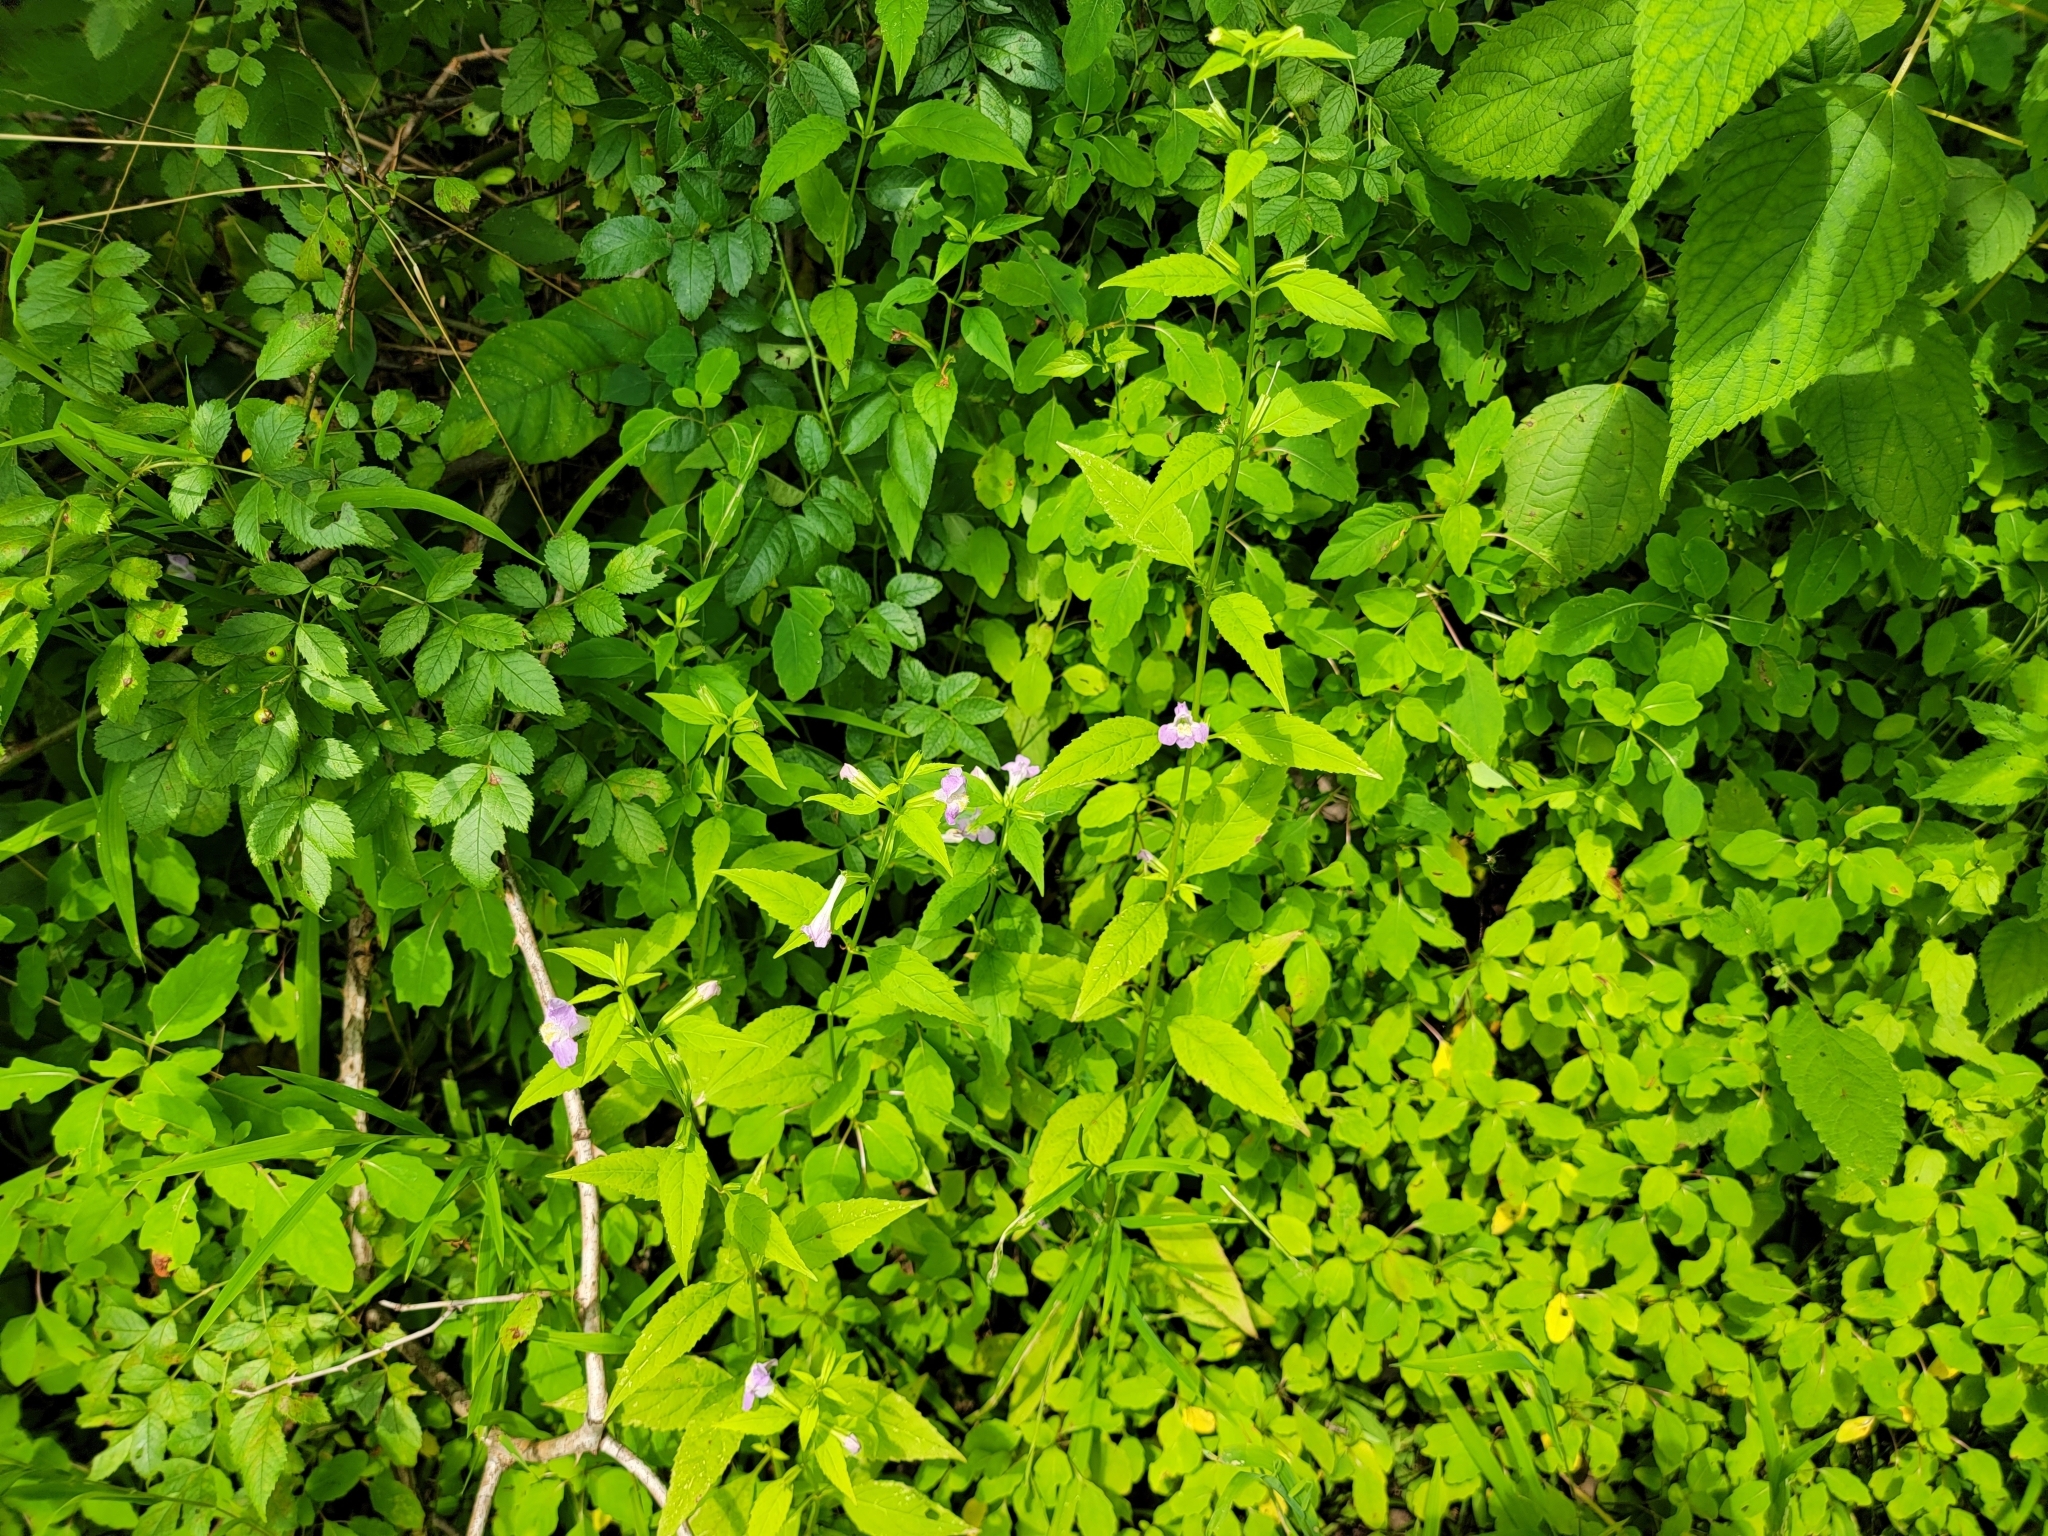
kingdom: Plantae
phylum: Tracheophyta
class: Magnoliopsida
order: Lamiales
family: Phrymaceae
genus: Mimulus
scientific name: Mimulus alatus
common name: Sharp-wing monkey-flower
